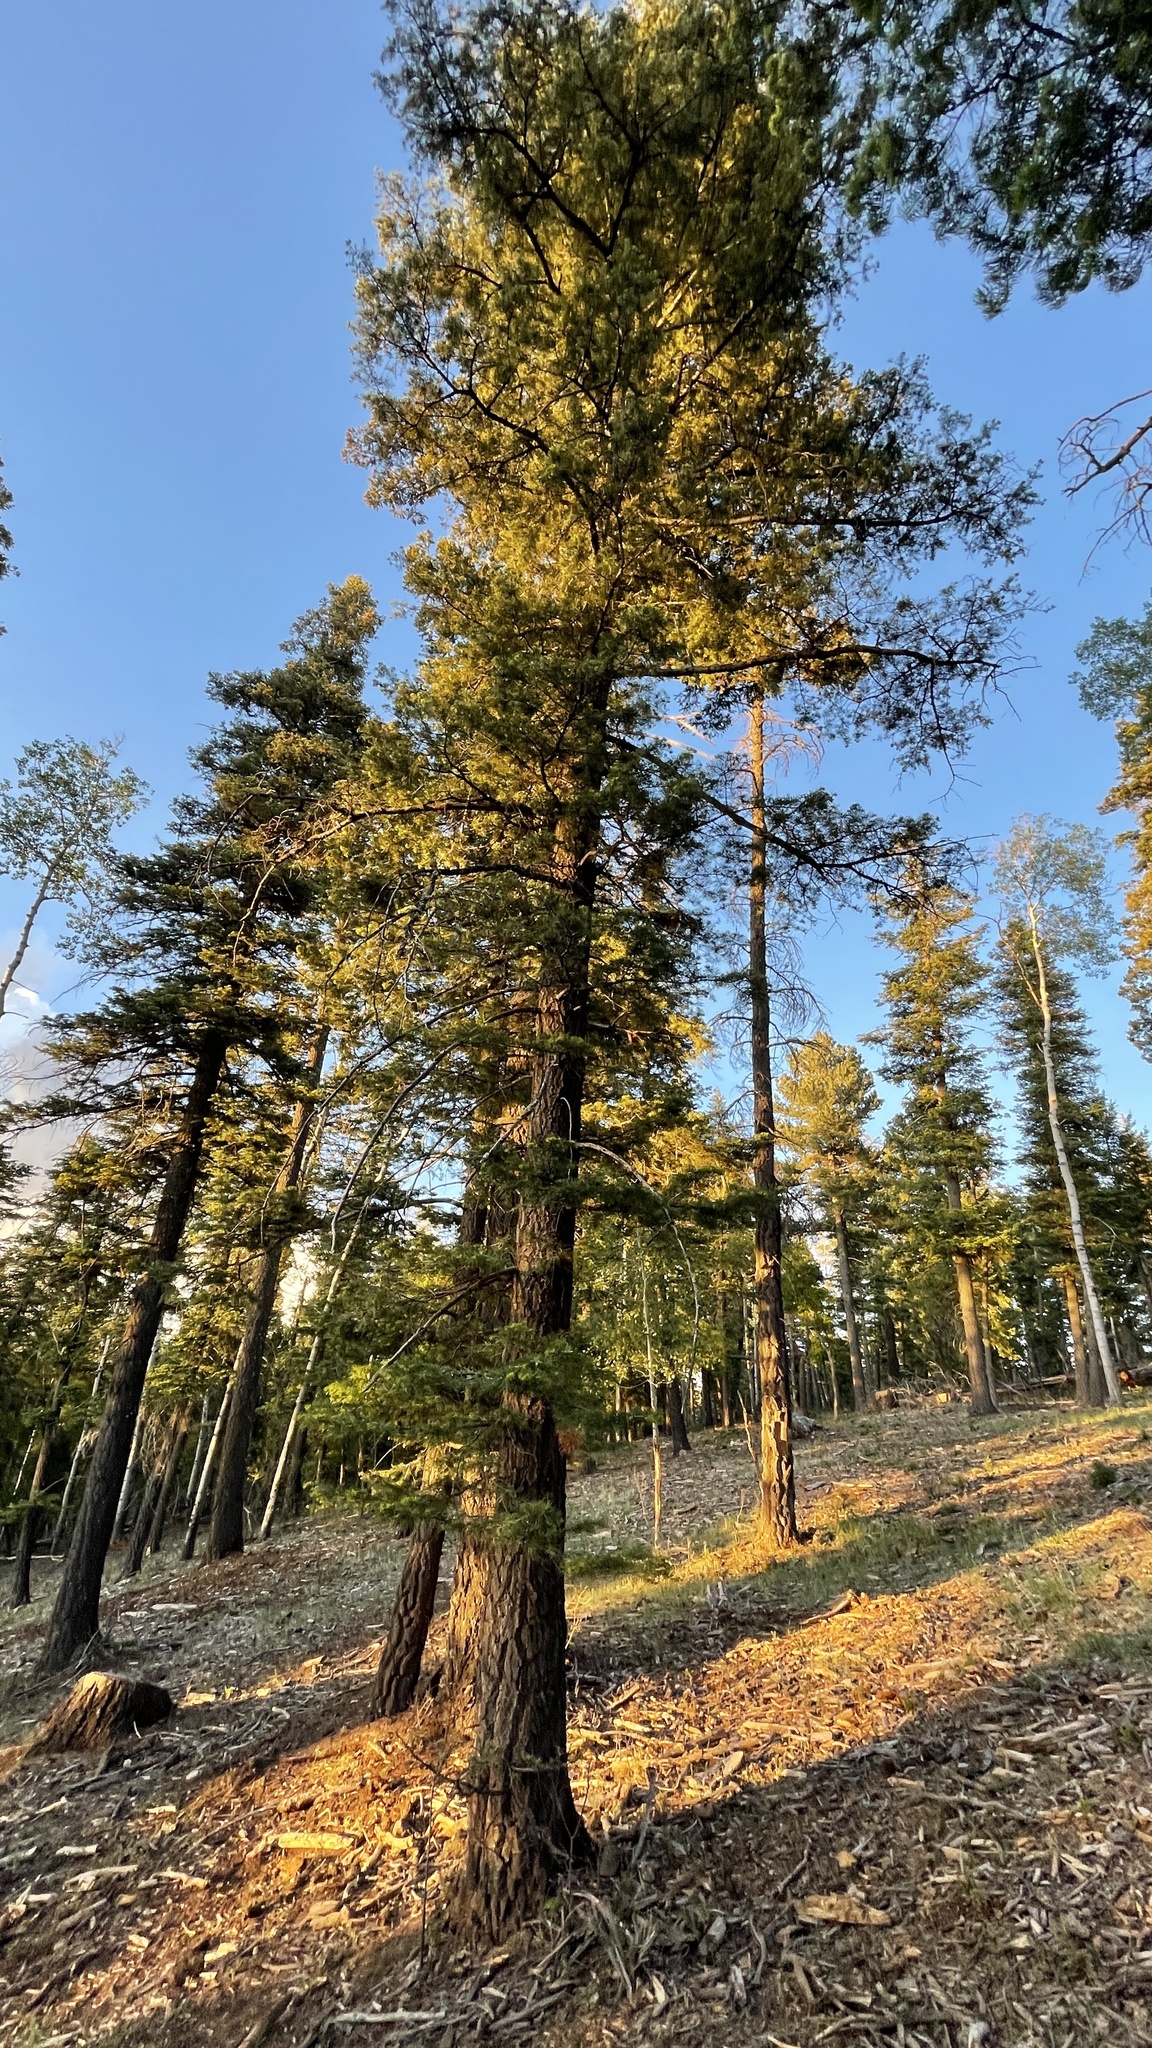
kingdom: Plantae
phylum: Tracheophyta
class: Pinopsida
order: Pinales
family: Pinaceae
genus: Abies
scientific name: Abies concolor
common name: Colorado fir
